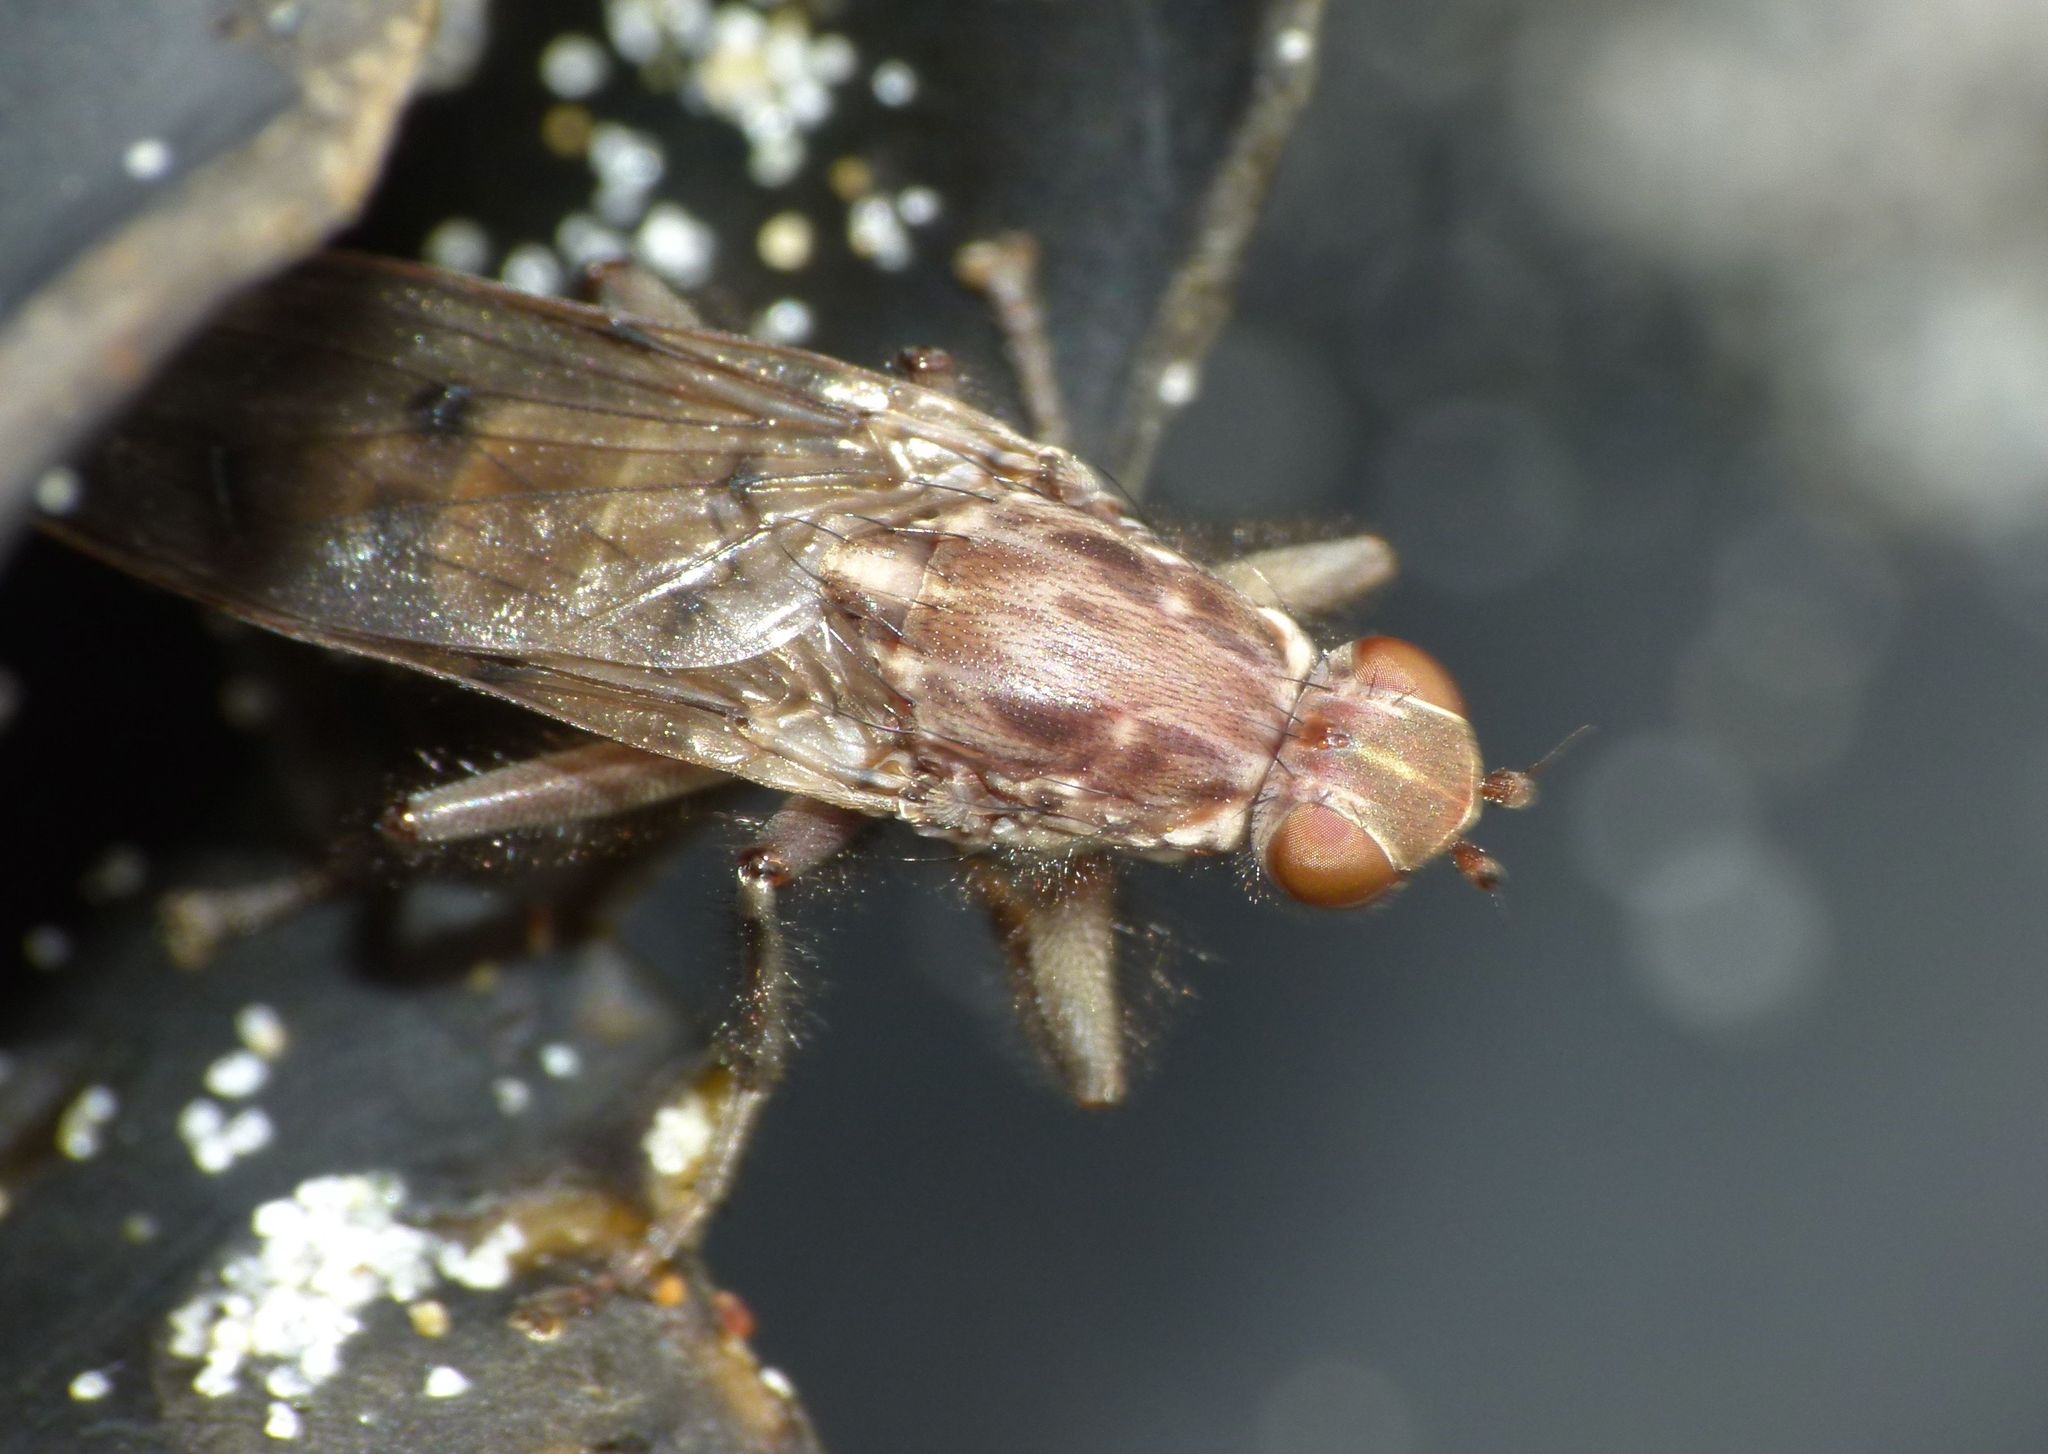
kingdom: Animalia
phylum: Arthropoda
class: Insecta
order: Diptera
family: Helcomyzidae
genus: Maorimyia
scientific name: Maorimyia bipunctata
